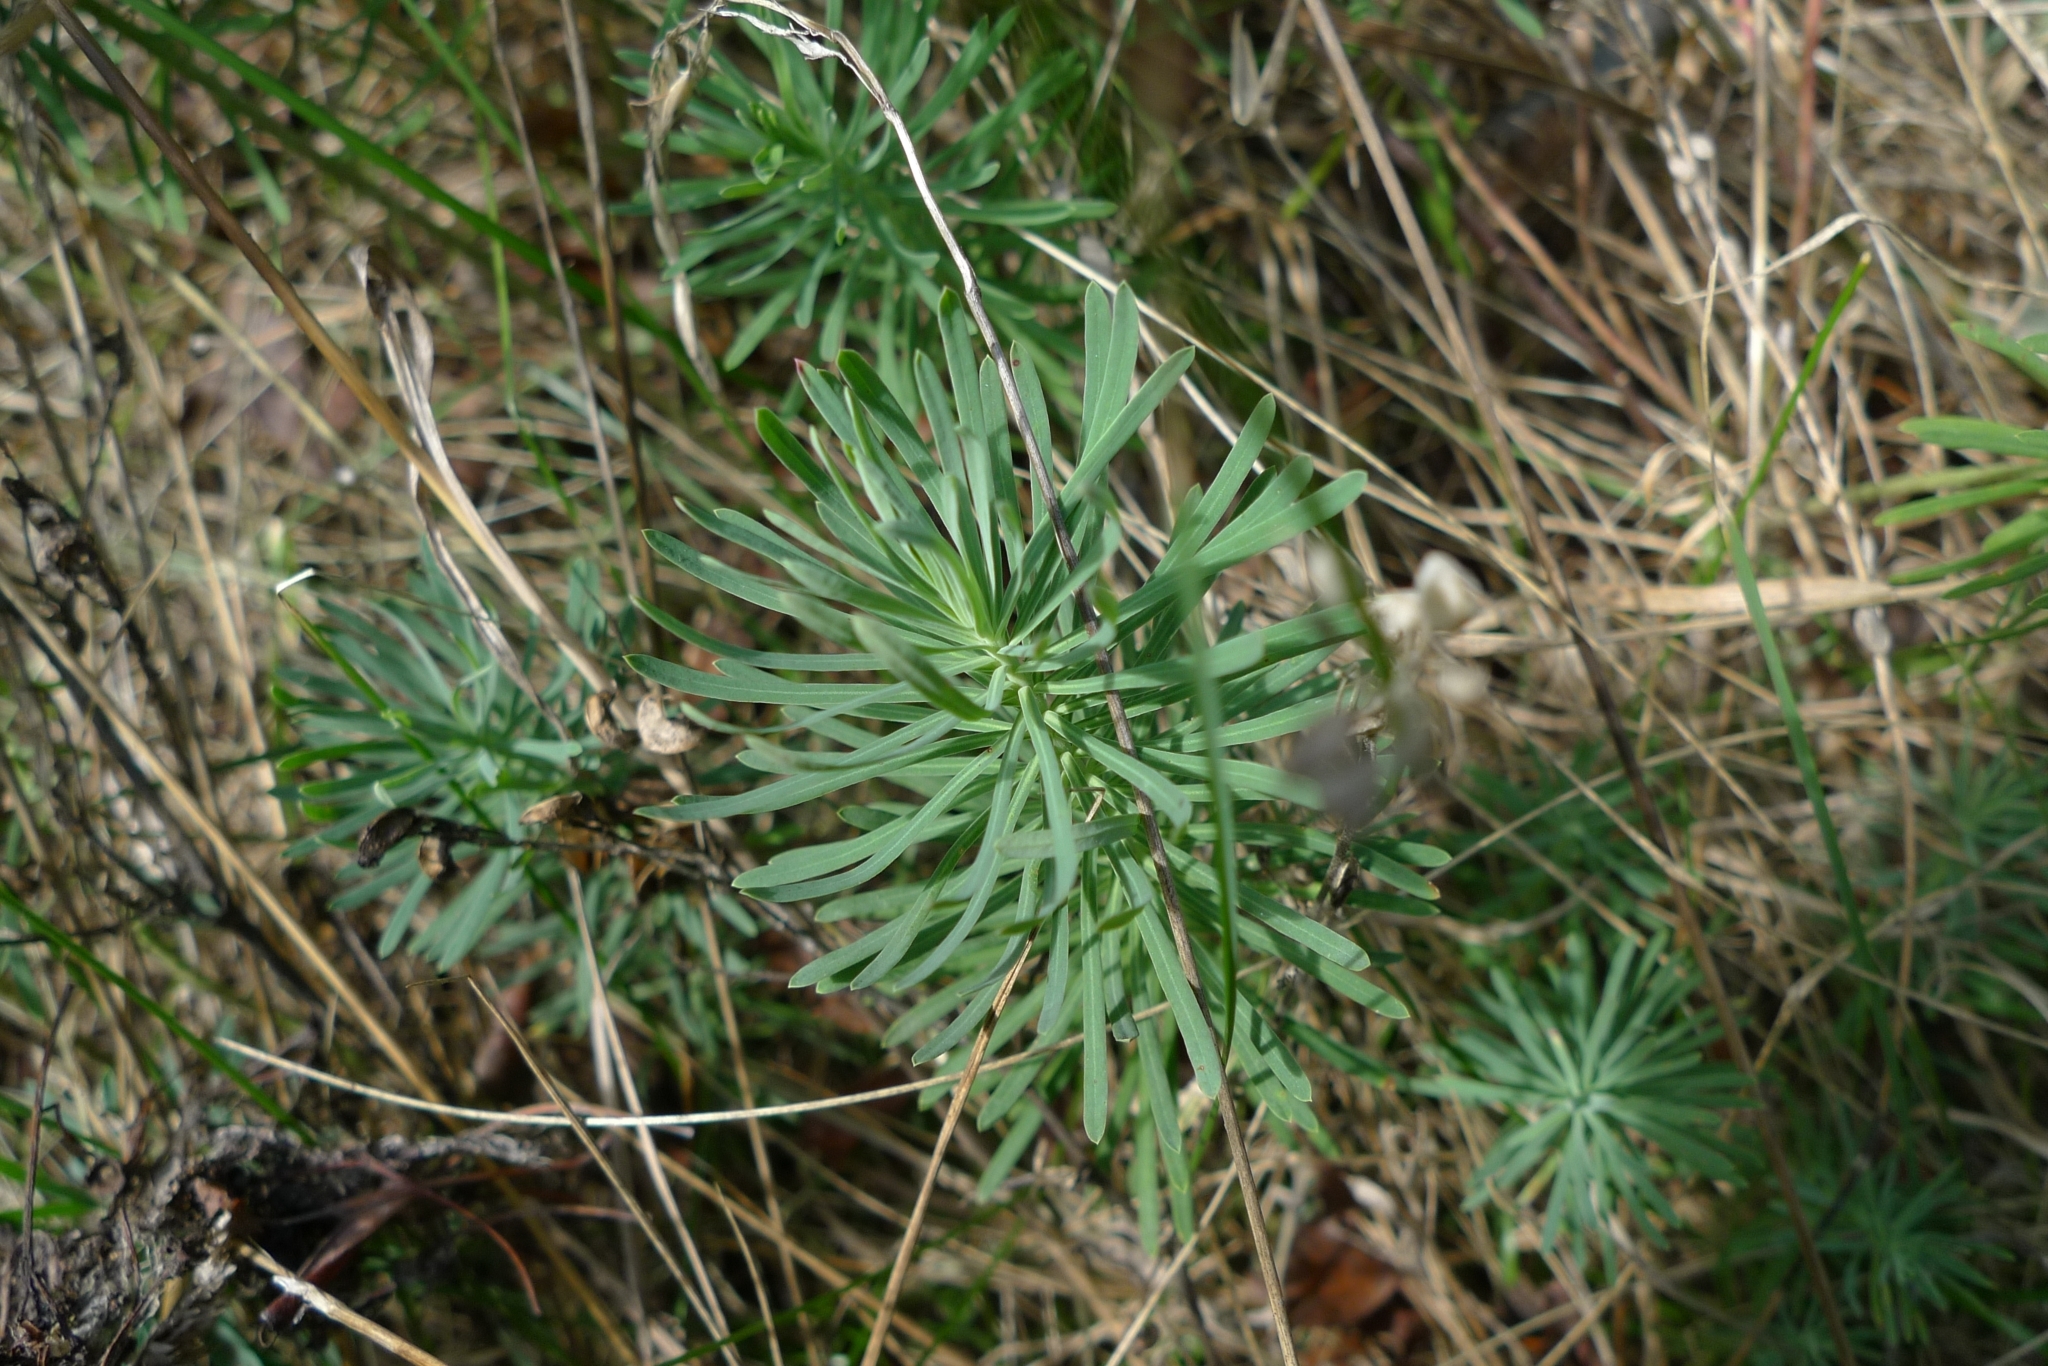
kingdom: Plantae
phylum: Tracheophyta
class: Magnoliopsida
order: Malpighiales
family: Euphorbiaceae
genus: Euphorbia
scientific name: Euphorbia cyparissias
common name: Cypress spurge
